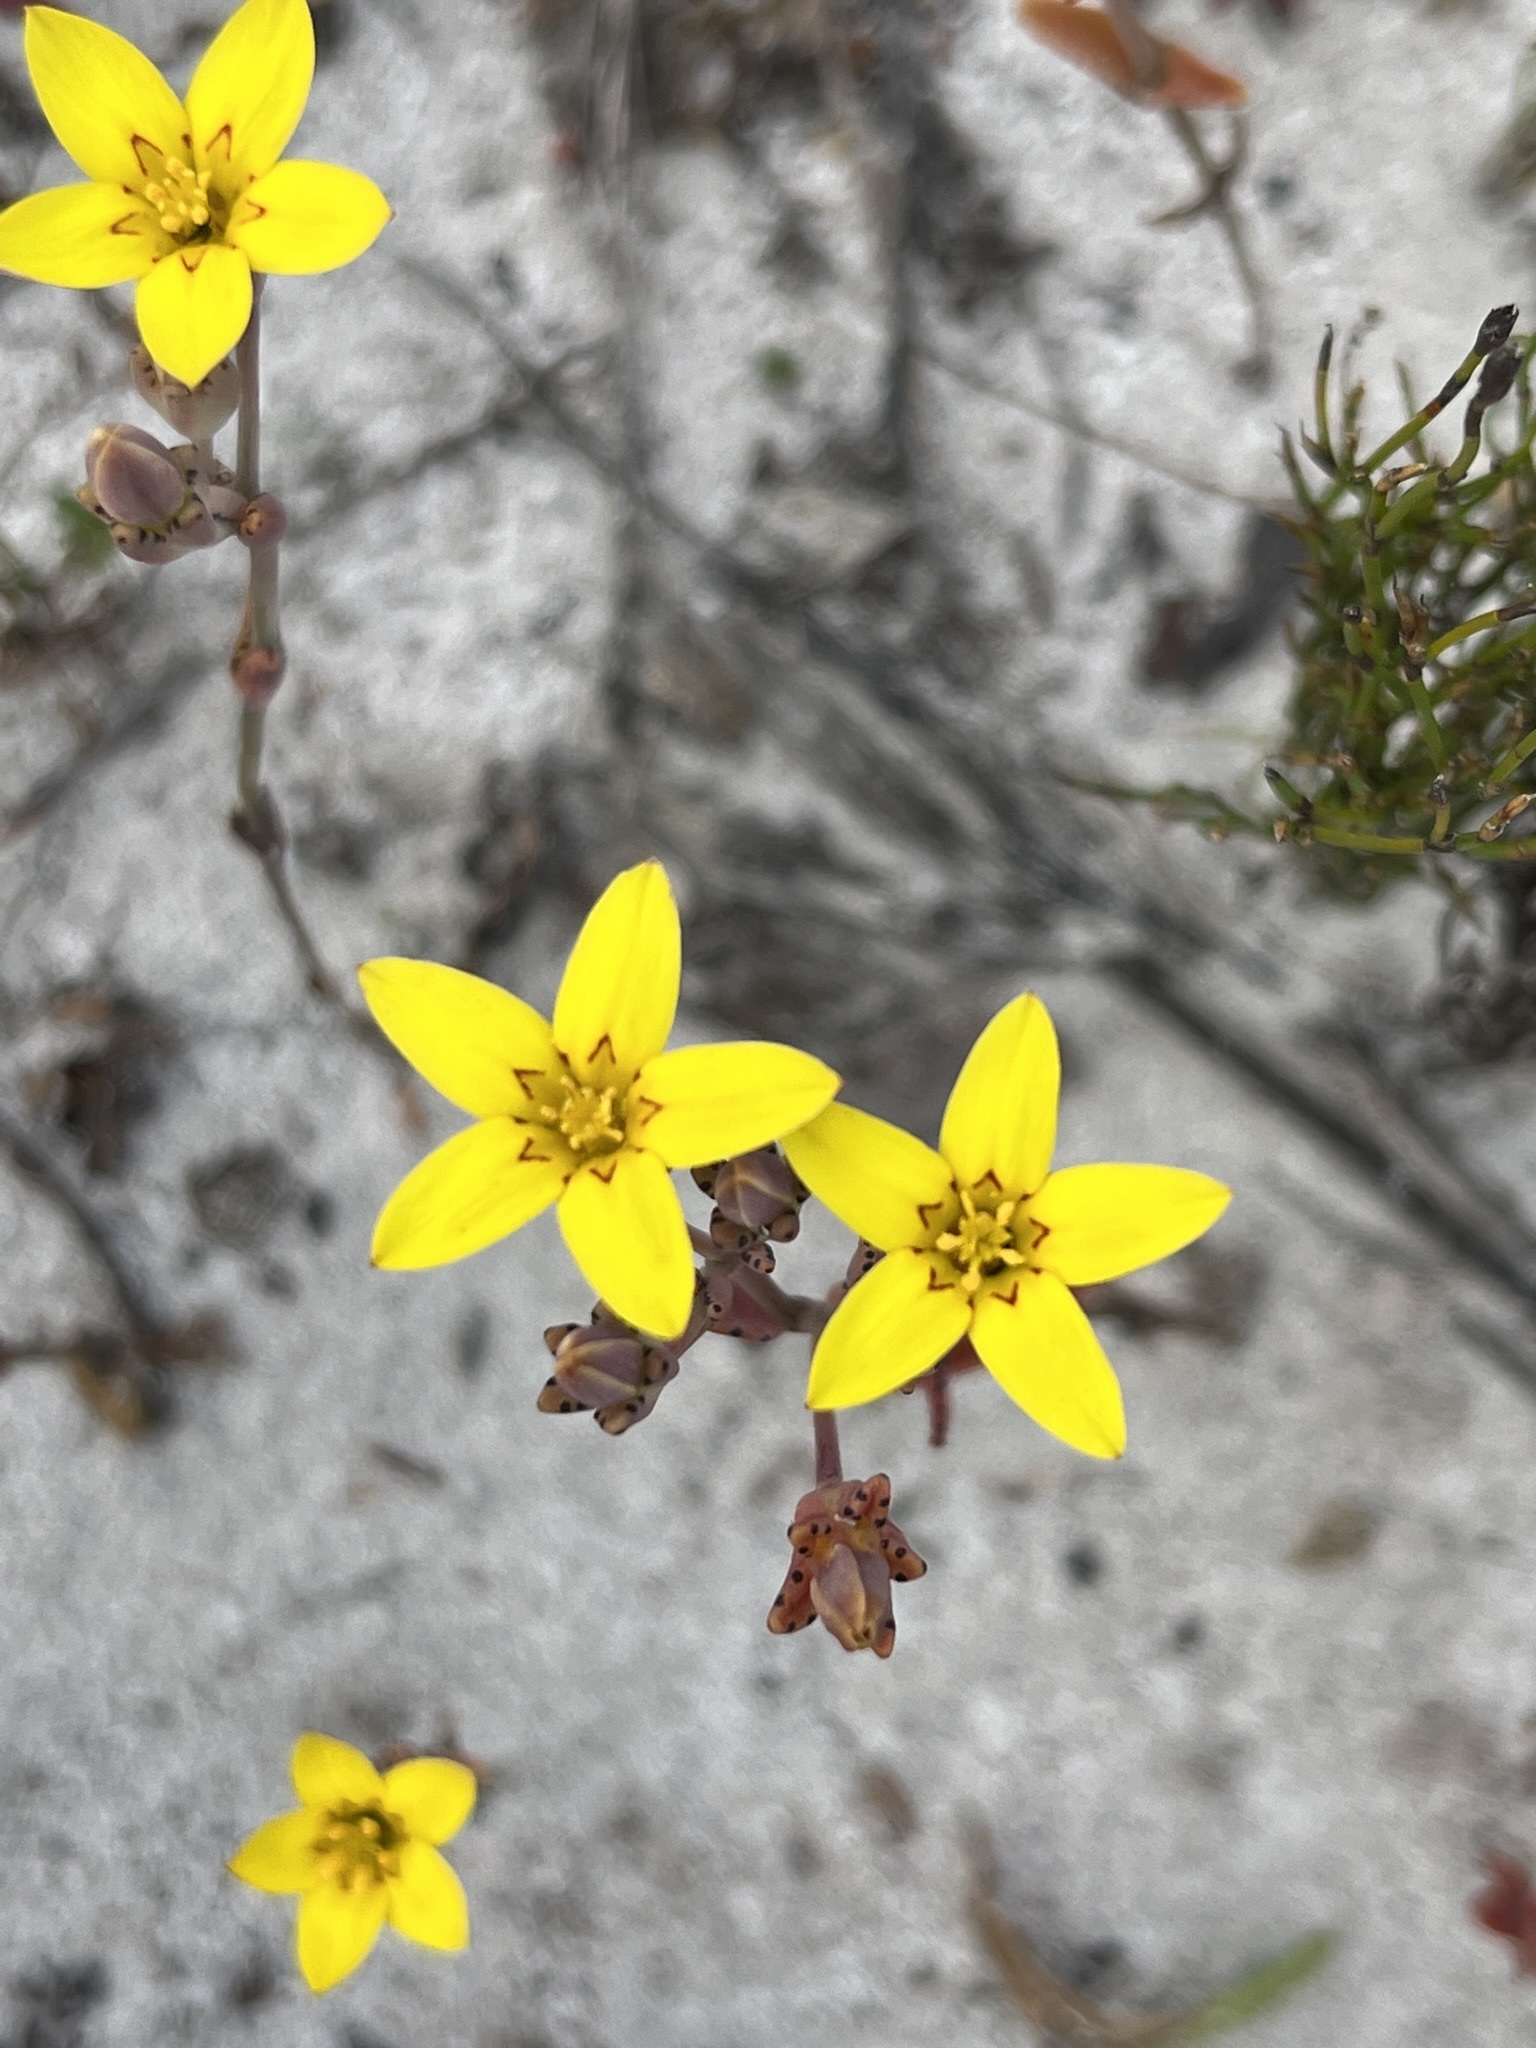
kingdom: Plantae
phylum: Tracheophyta
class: Magnoliopsida
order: Saxifragales
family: Crassulaceae
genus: Crassula
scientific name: Crassula dichotoma
